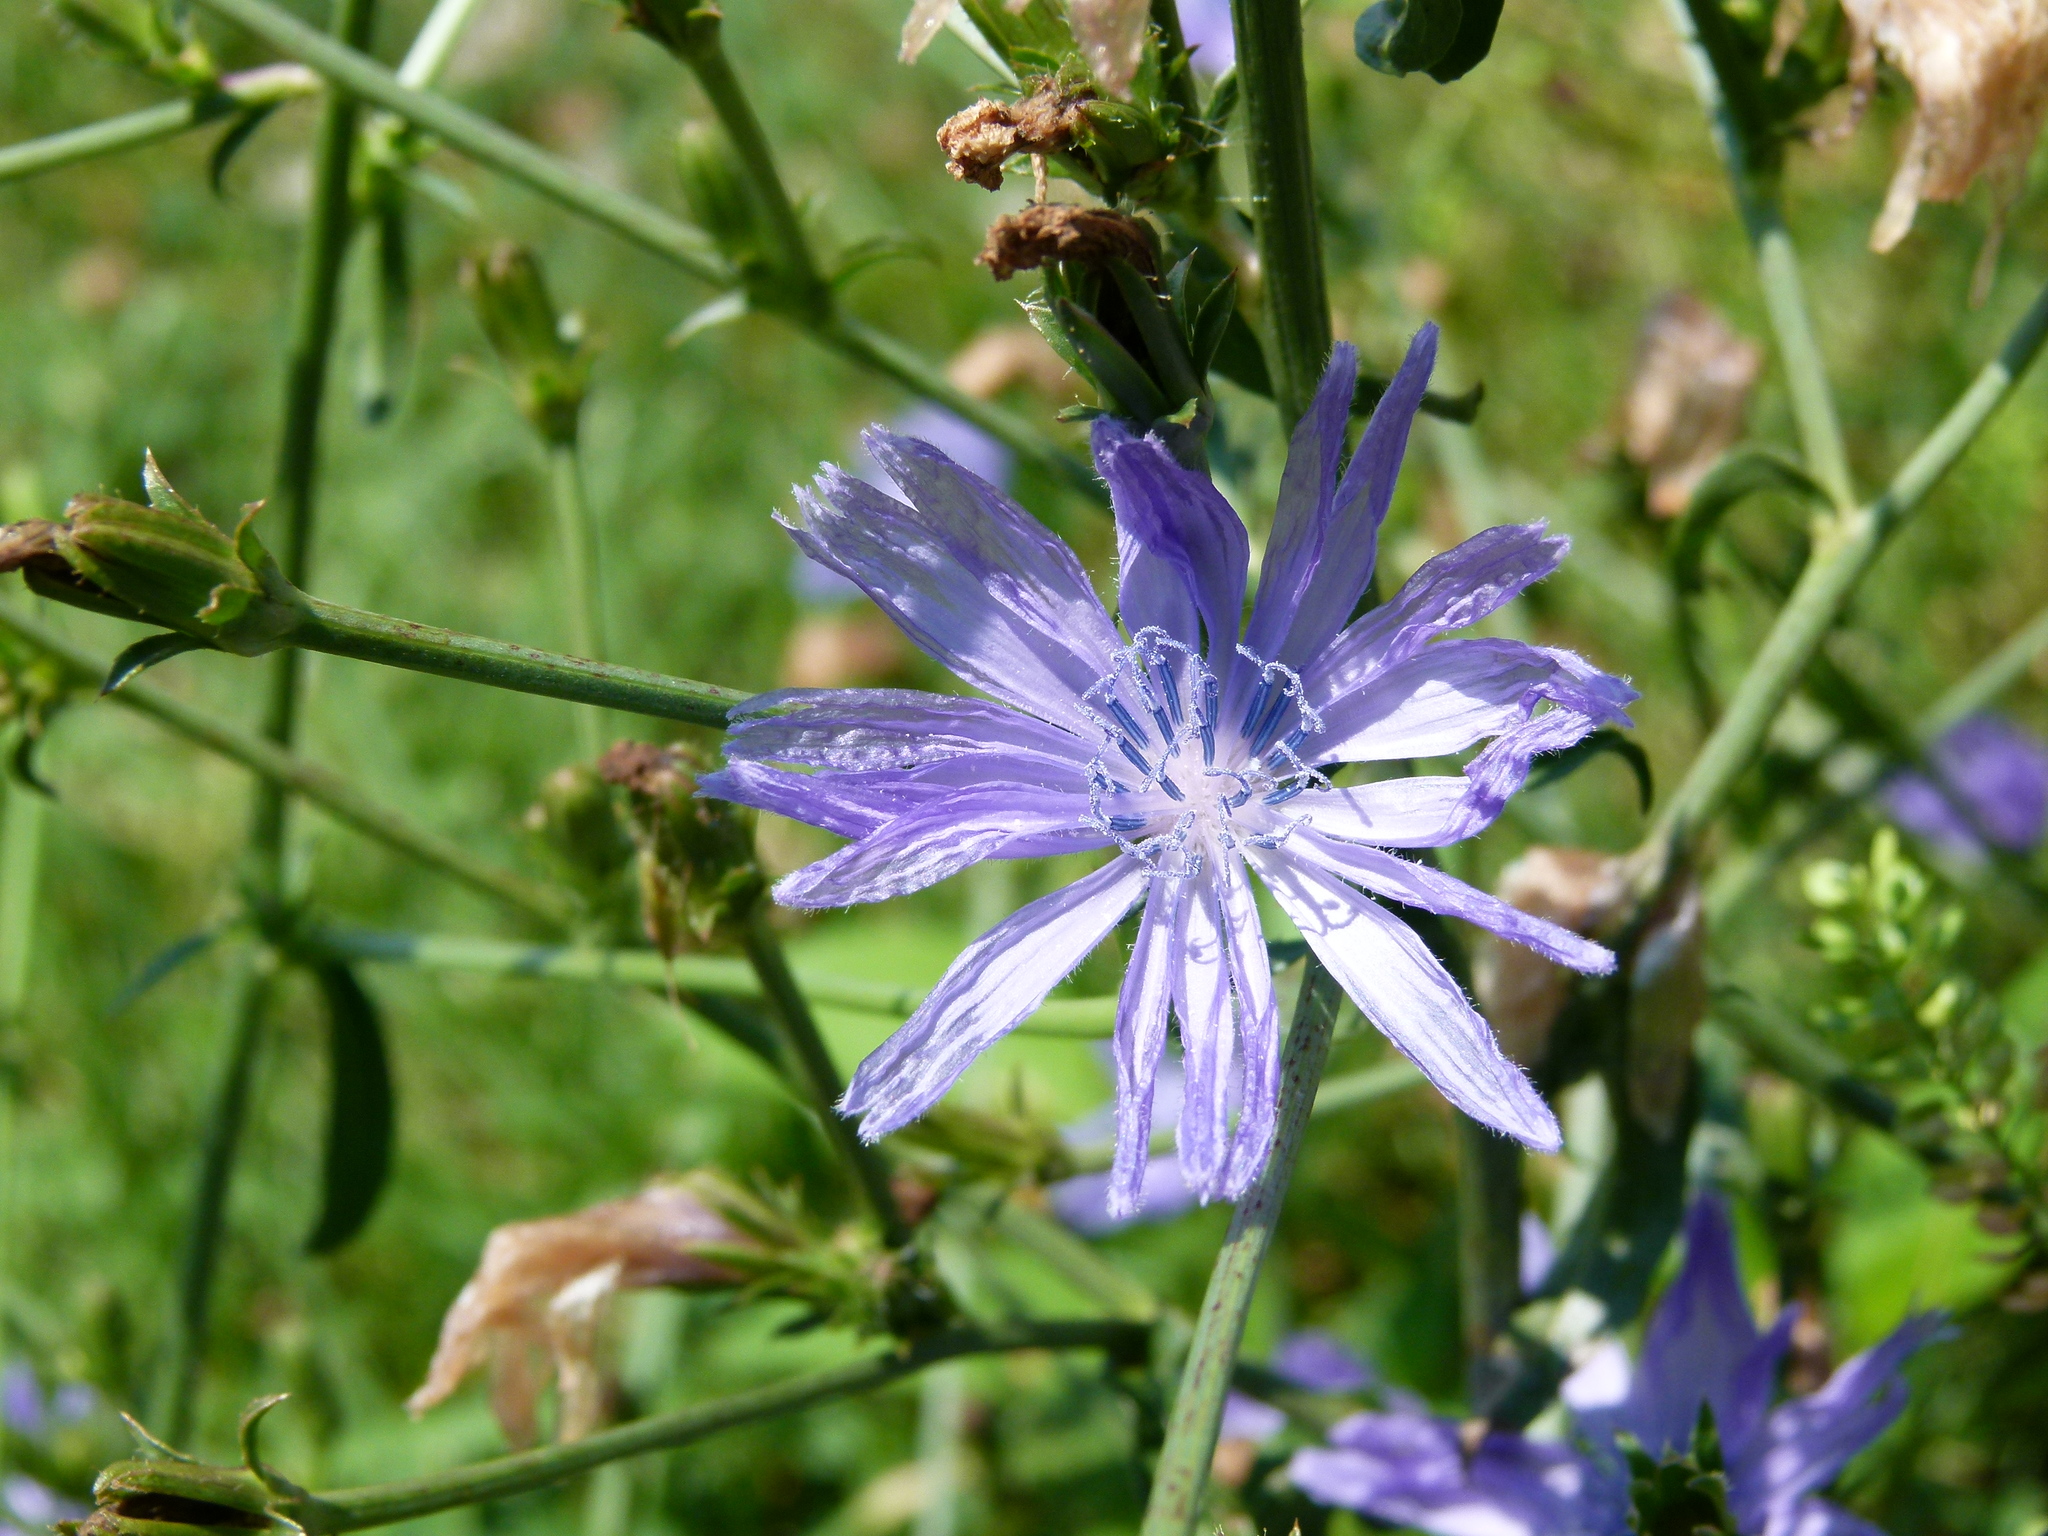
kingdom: Plantae
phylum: Tracheophyta
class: Magnoliopsida
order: Asterales
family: Asteraceae
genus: Cichorium
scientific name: Cichorium intybus
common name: Chicory
